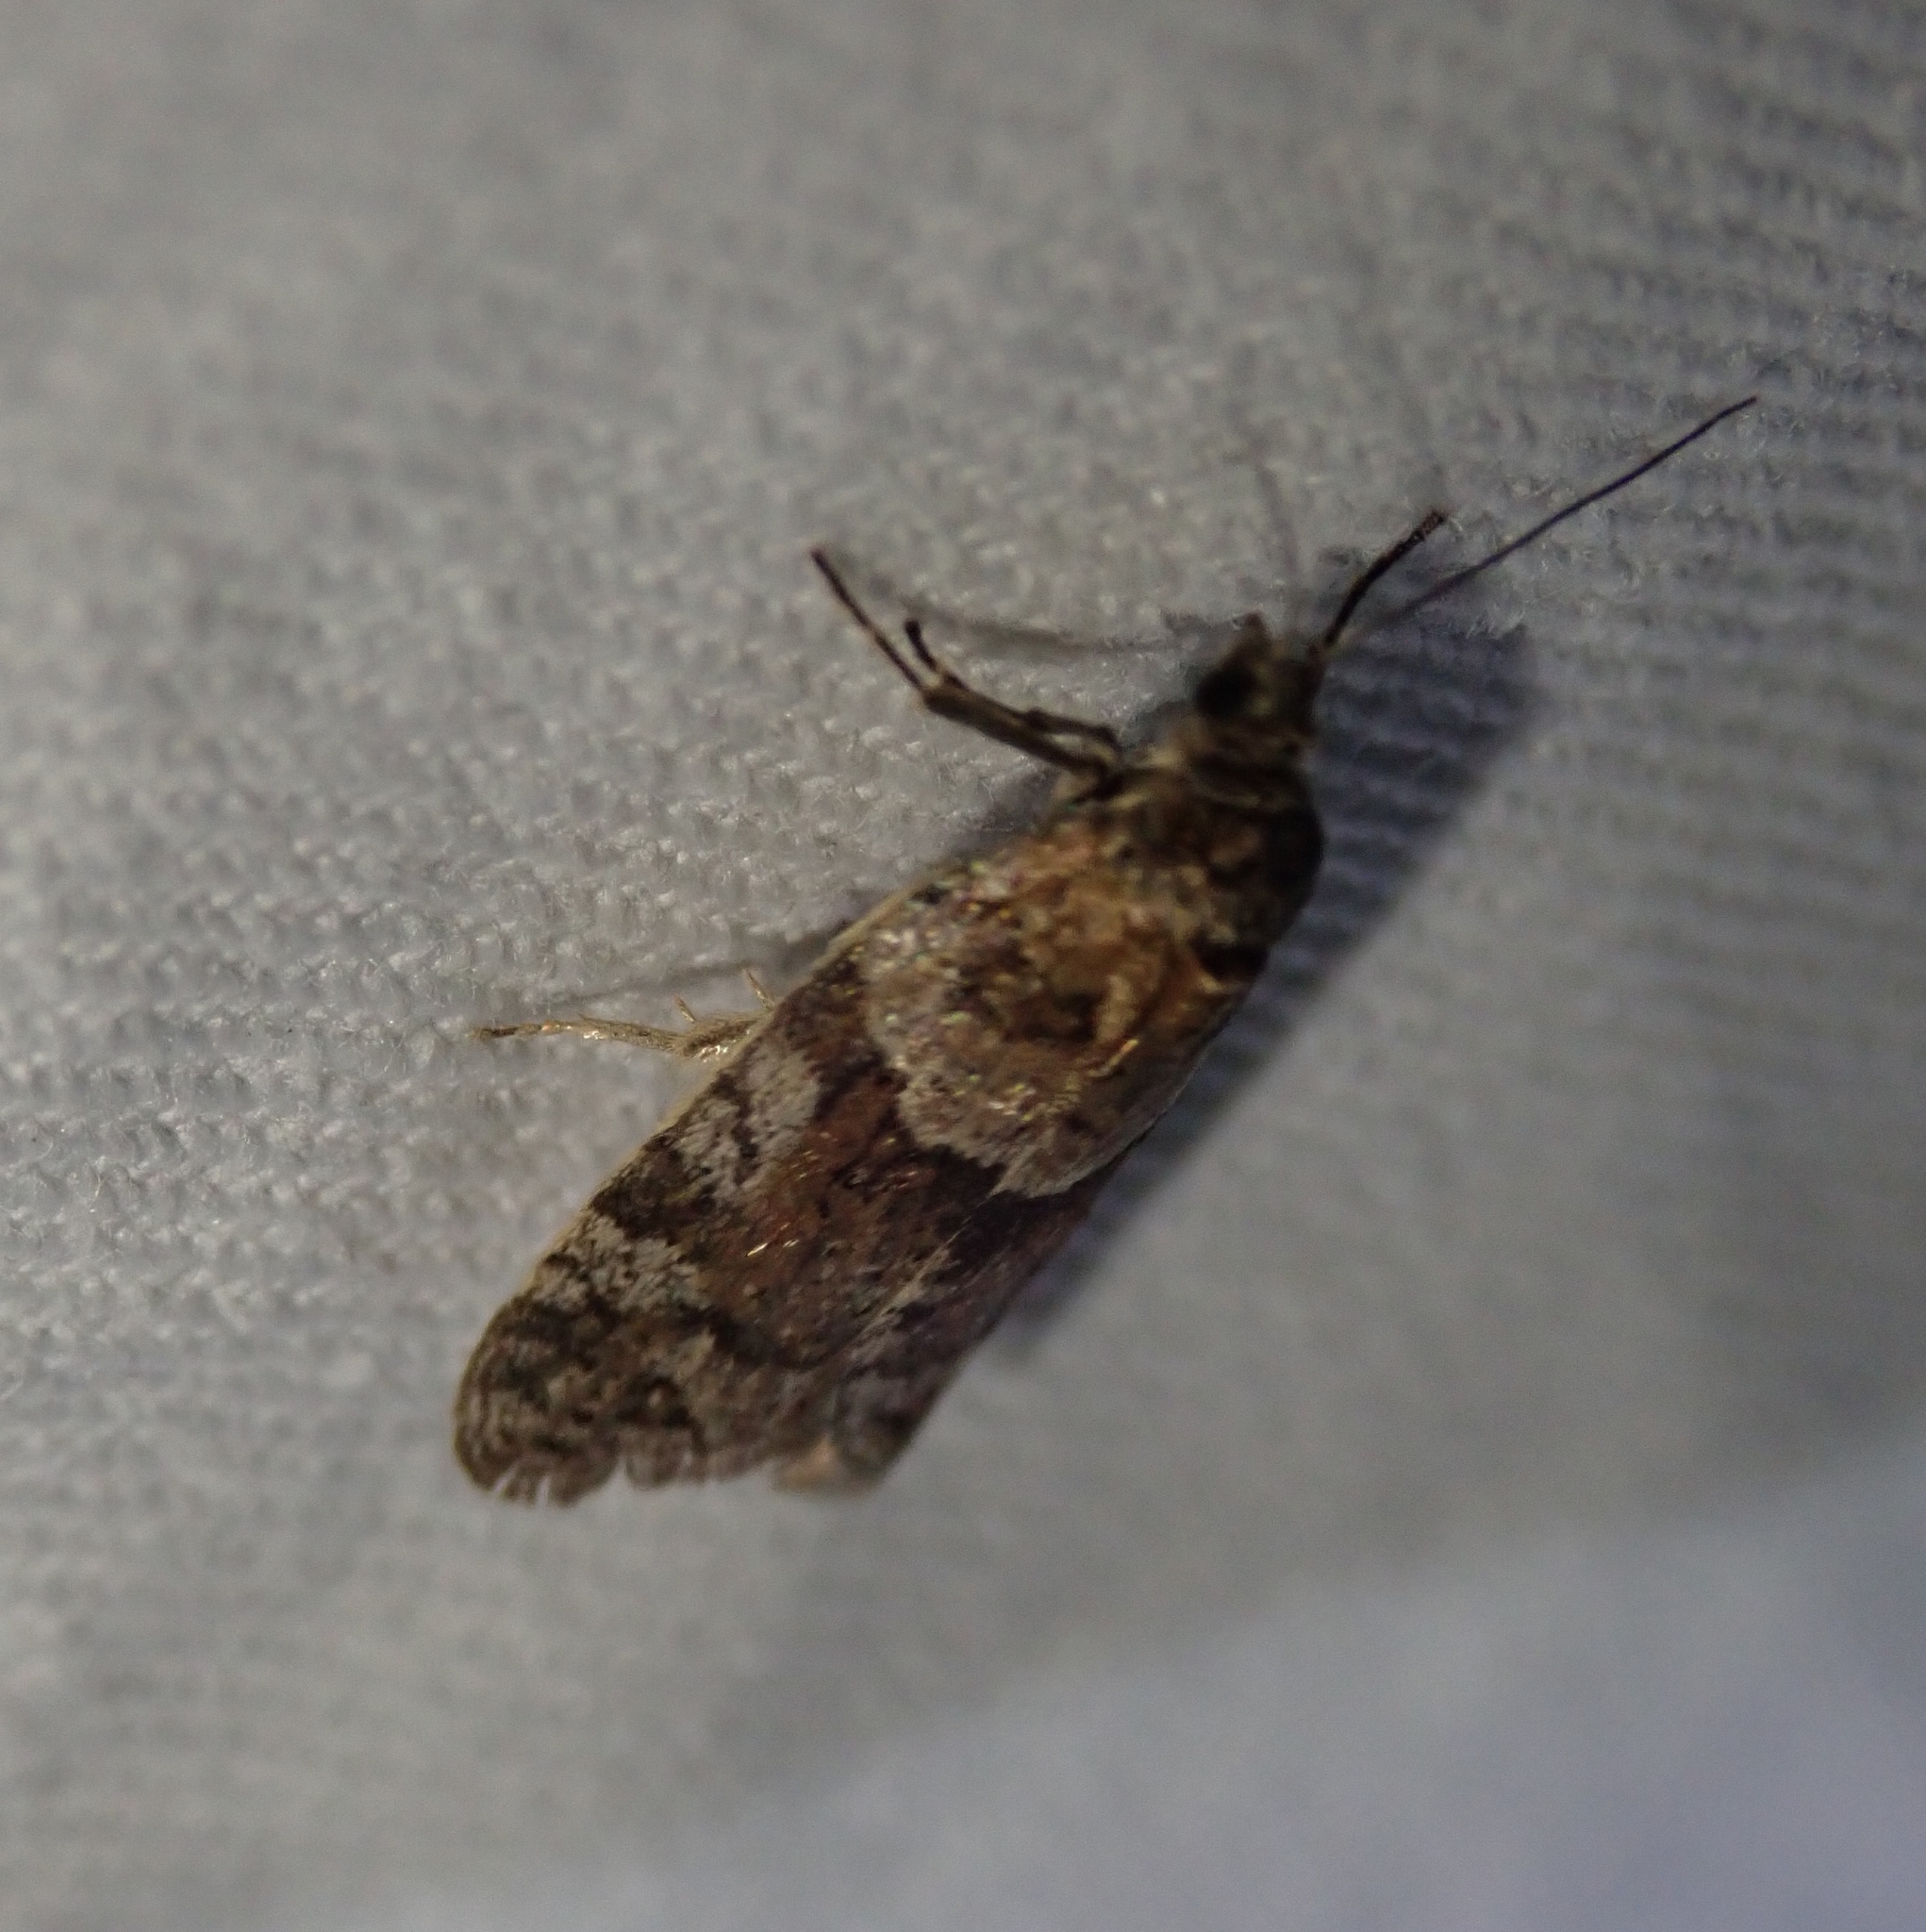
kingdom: Animalia
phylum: Arthropoda
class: Insecta
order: Lepidoptera
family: Tortricidae
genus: Tortricodes
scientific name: Tortricodes alternella
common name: Winter shade
